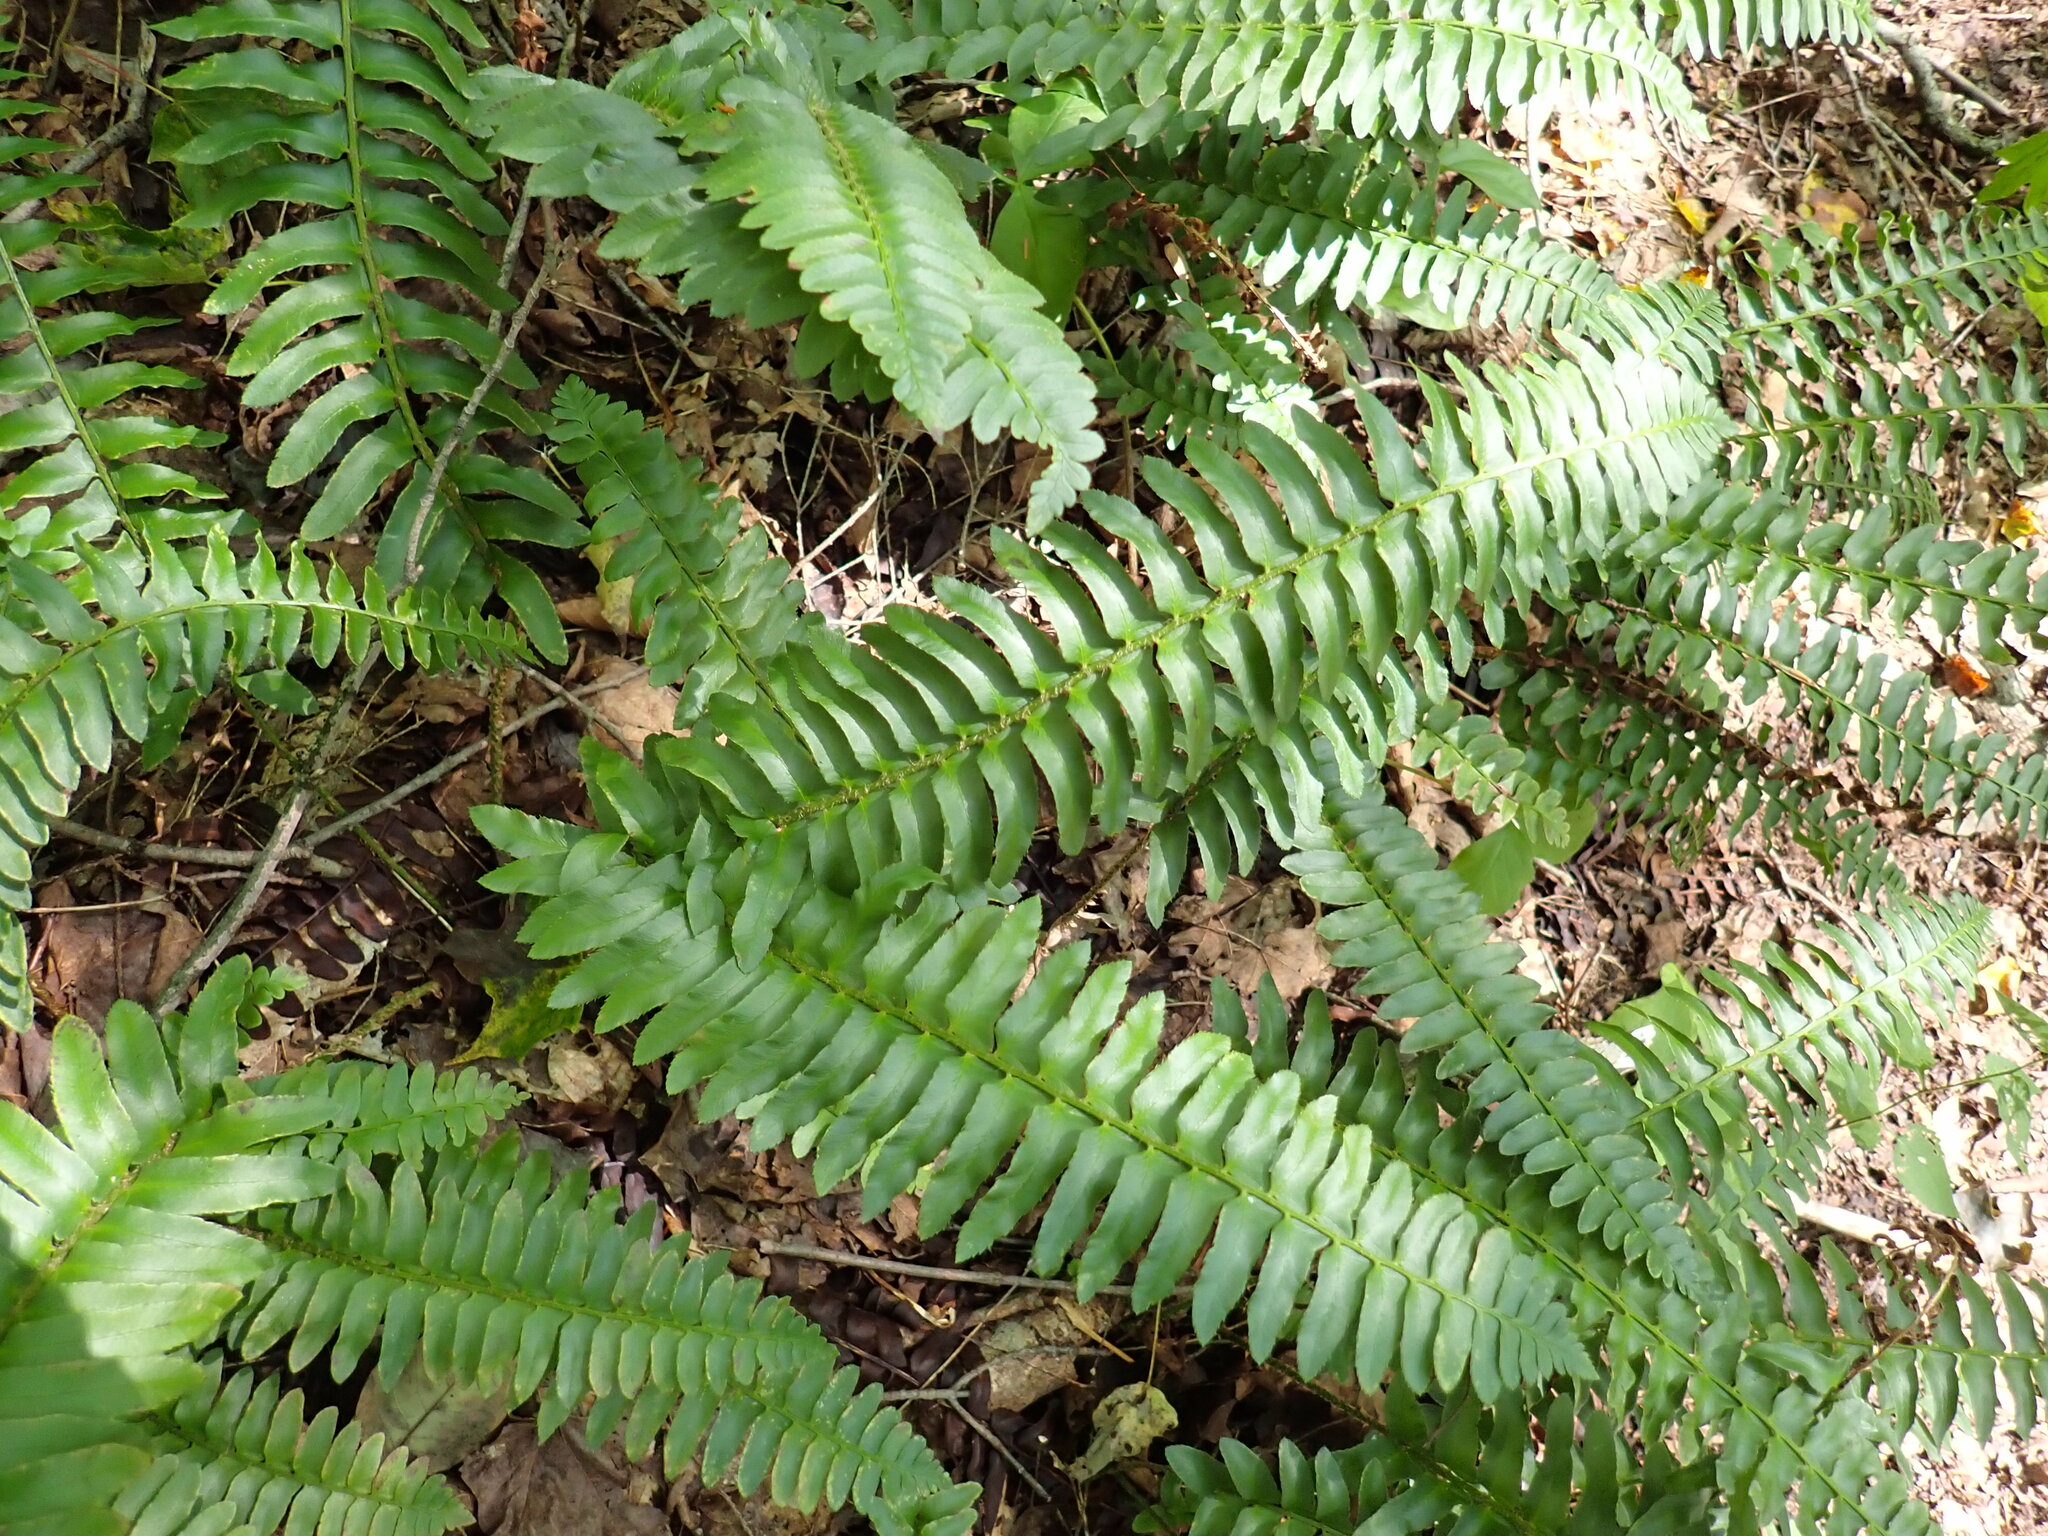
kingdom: Plantae
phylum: Tracheophyta
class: Polypodiopsida
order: Polypodiales
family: Dryopteridaceae
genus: Polystichum
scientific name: Polystichum acrostichoides
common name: Christmas fern
